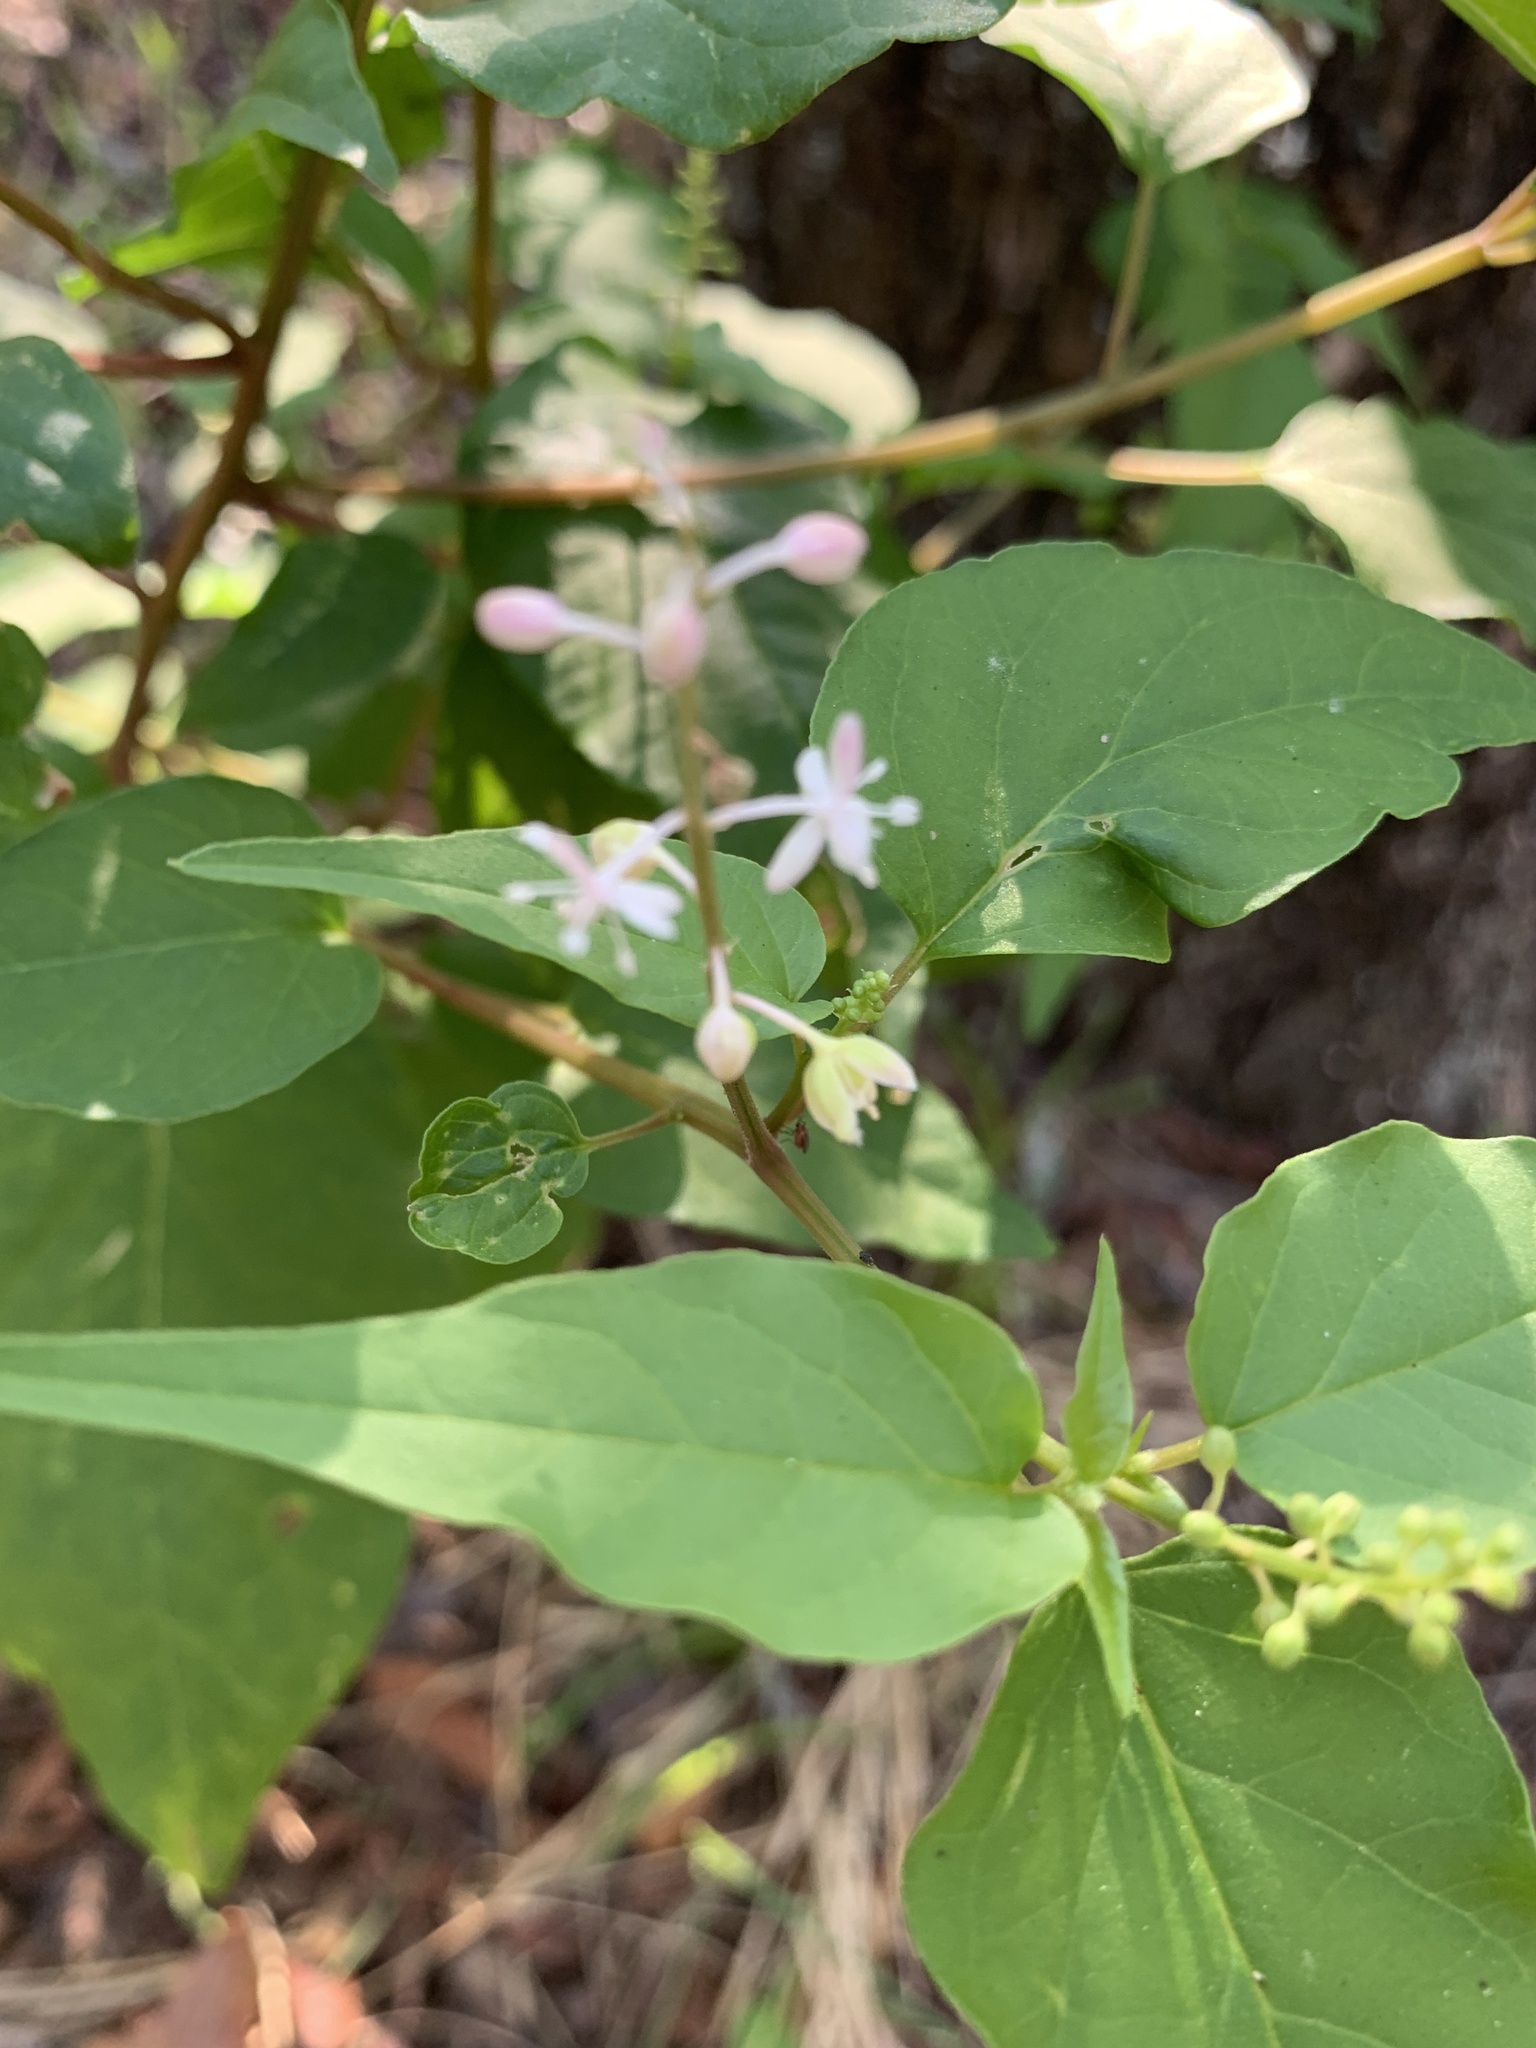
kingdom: Plantae
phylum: Tracheophyta
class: Magnoliopsida
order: Caryophyllales
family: Phytolaccaceae
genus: Rivina
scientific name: Rivina humilis
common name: Rougeplant
